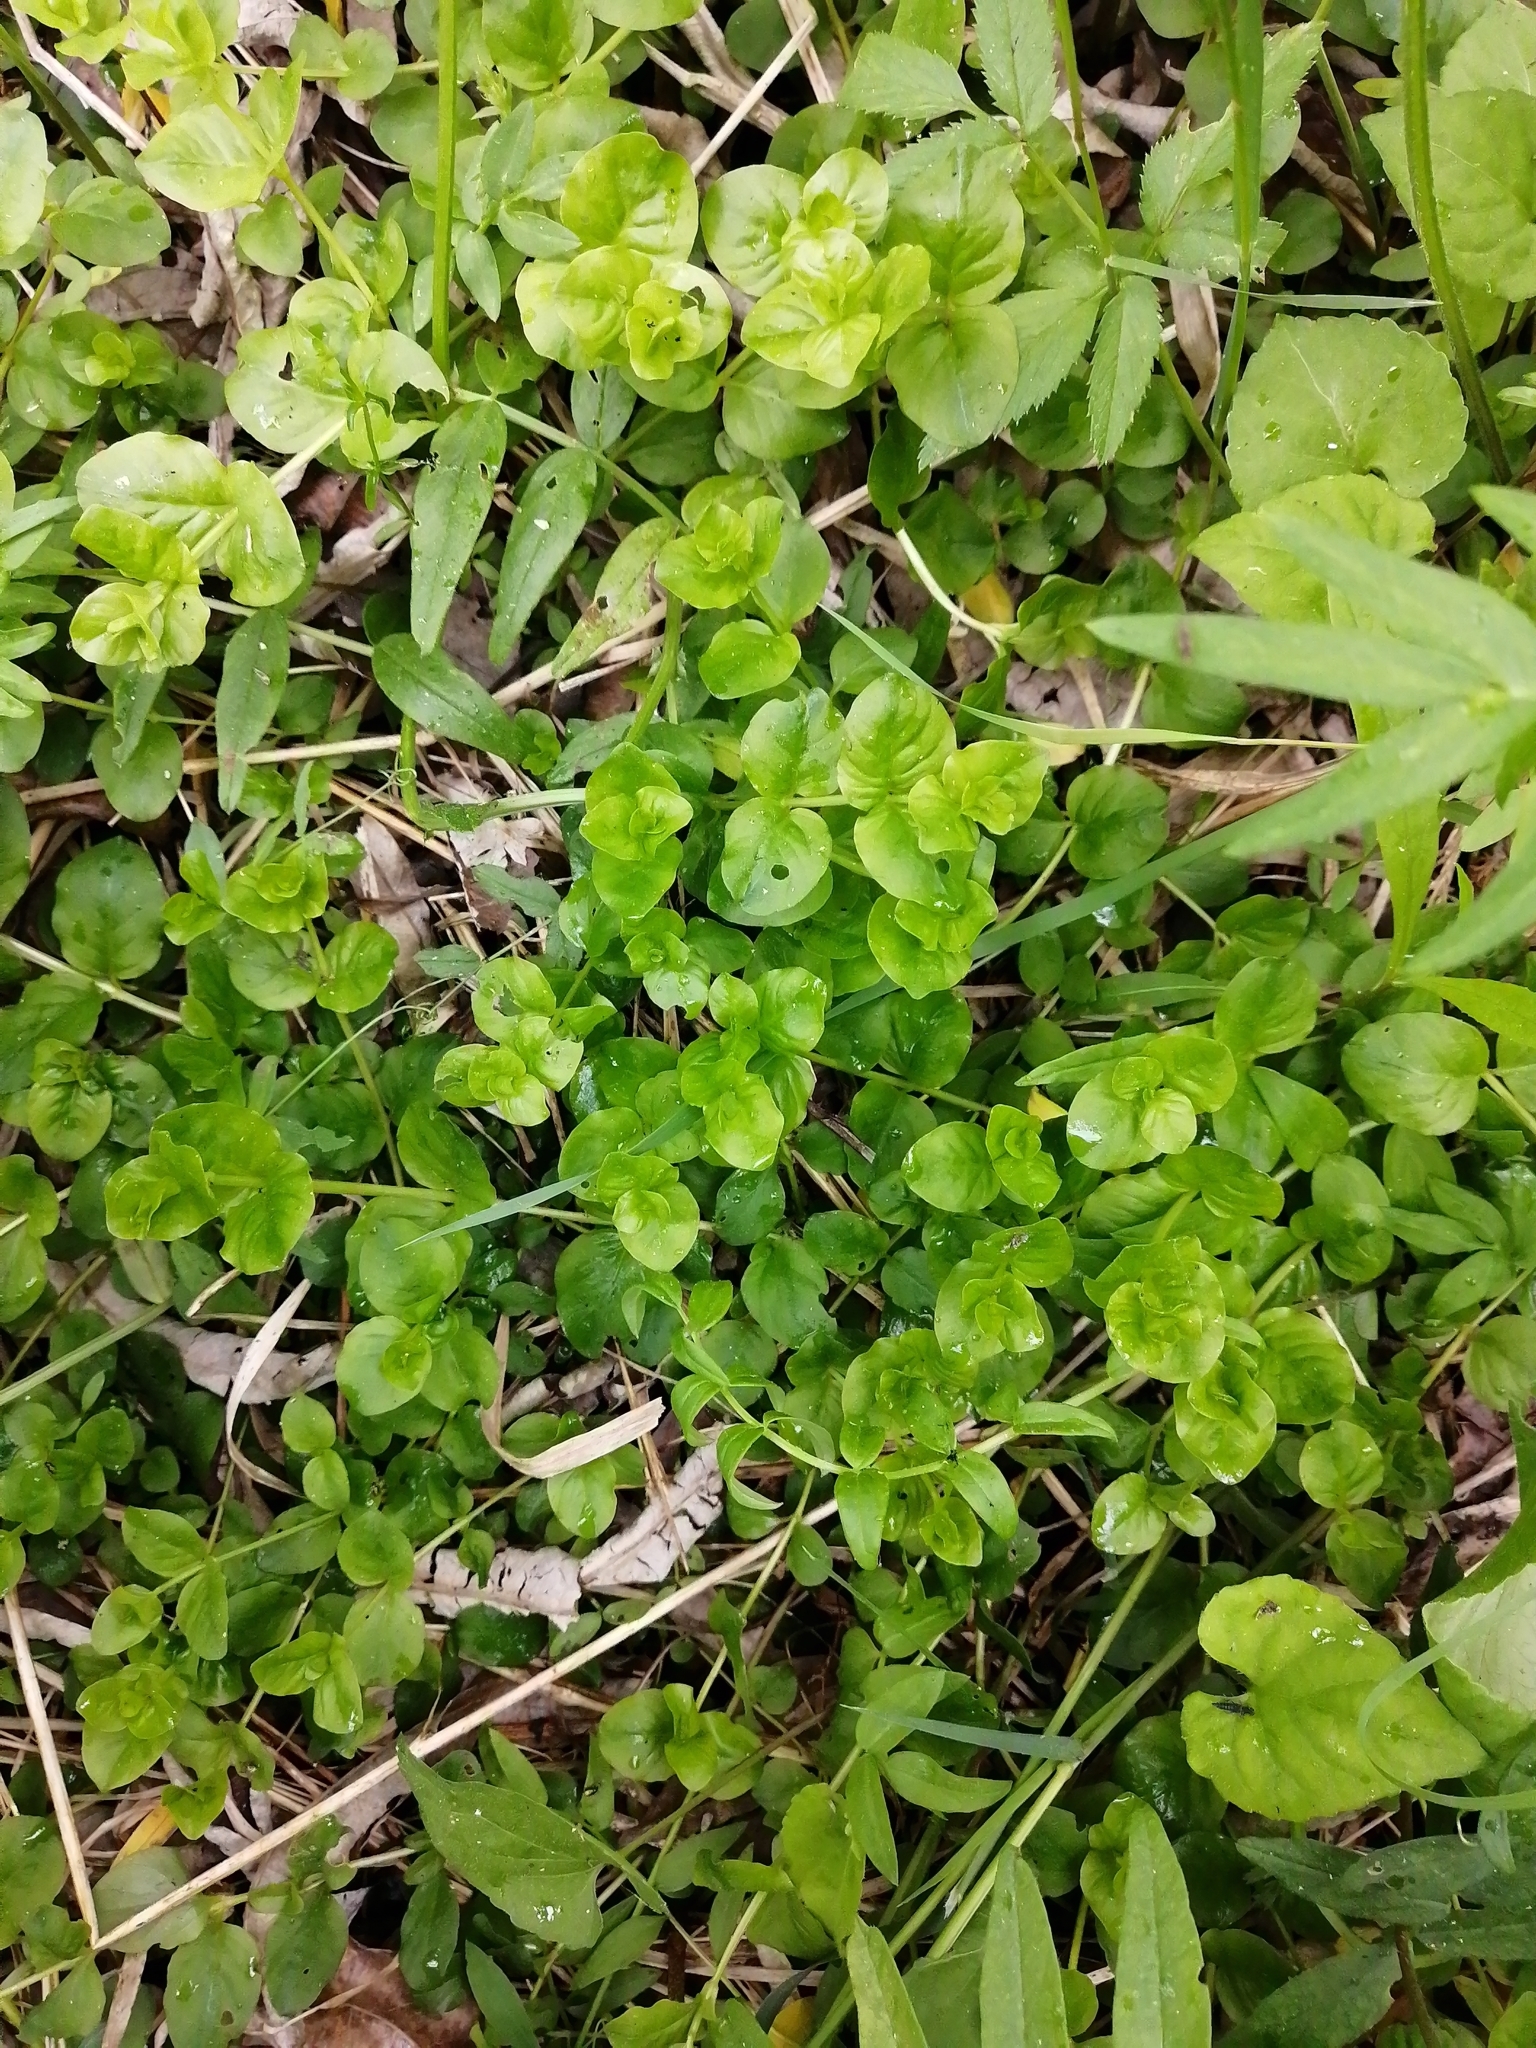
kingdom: Plantae
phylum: Tracheophyta
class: Magnoliopsida
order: Ericales
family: Primulaceae
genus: Lysimachia
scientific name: Lysimachia nummularia
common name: Moneywort
